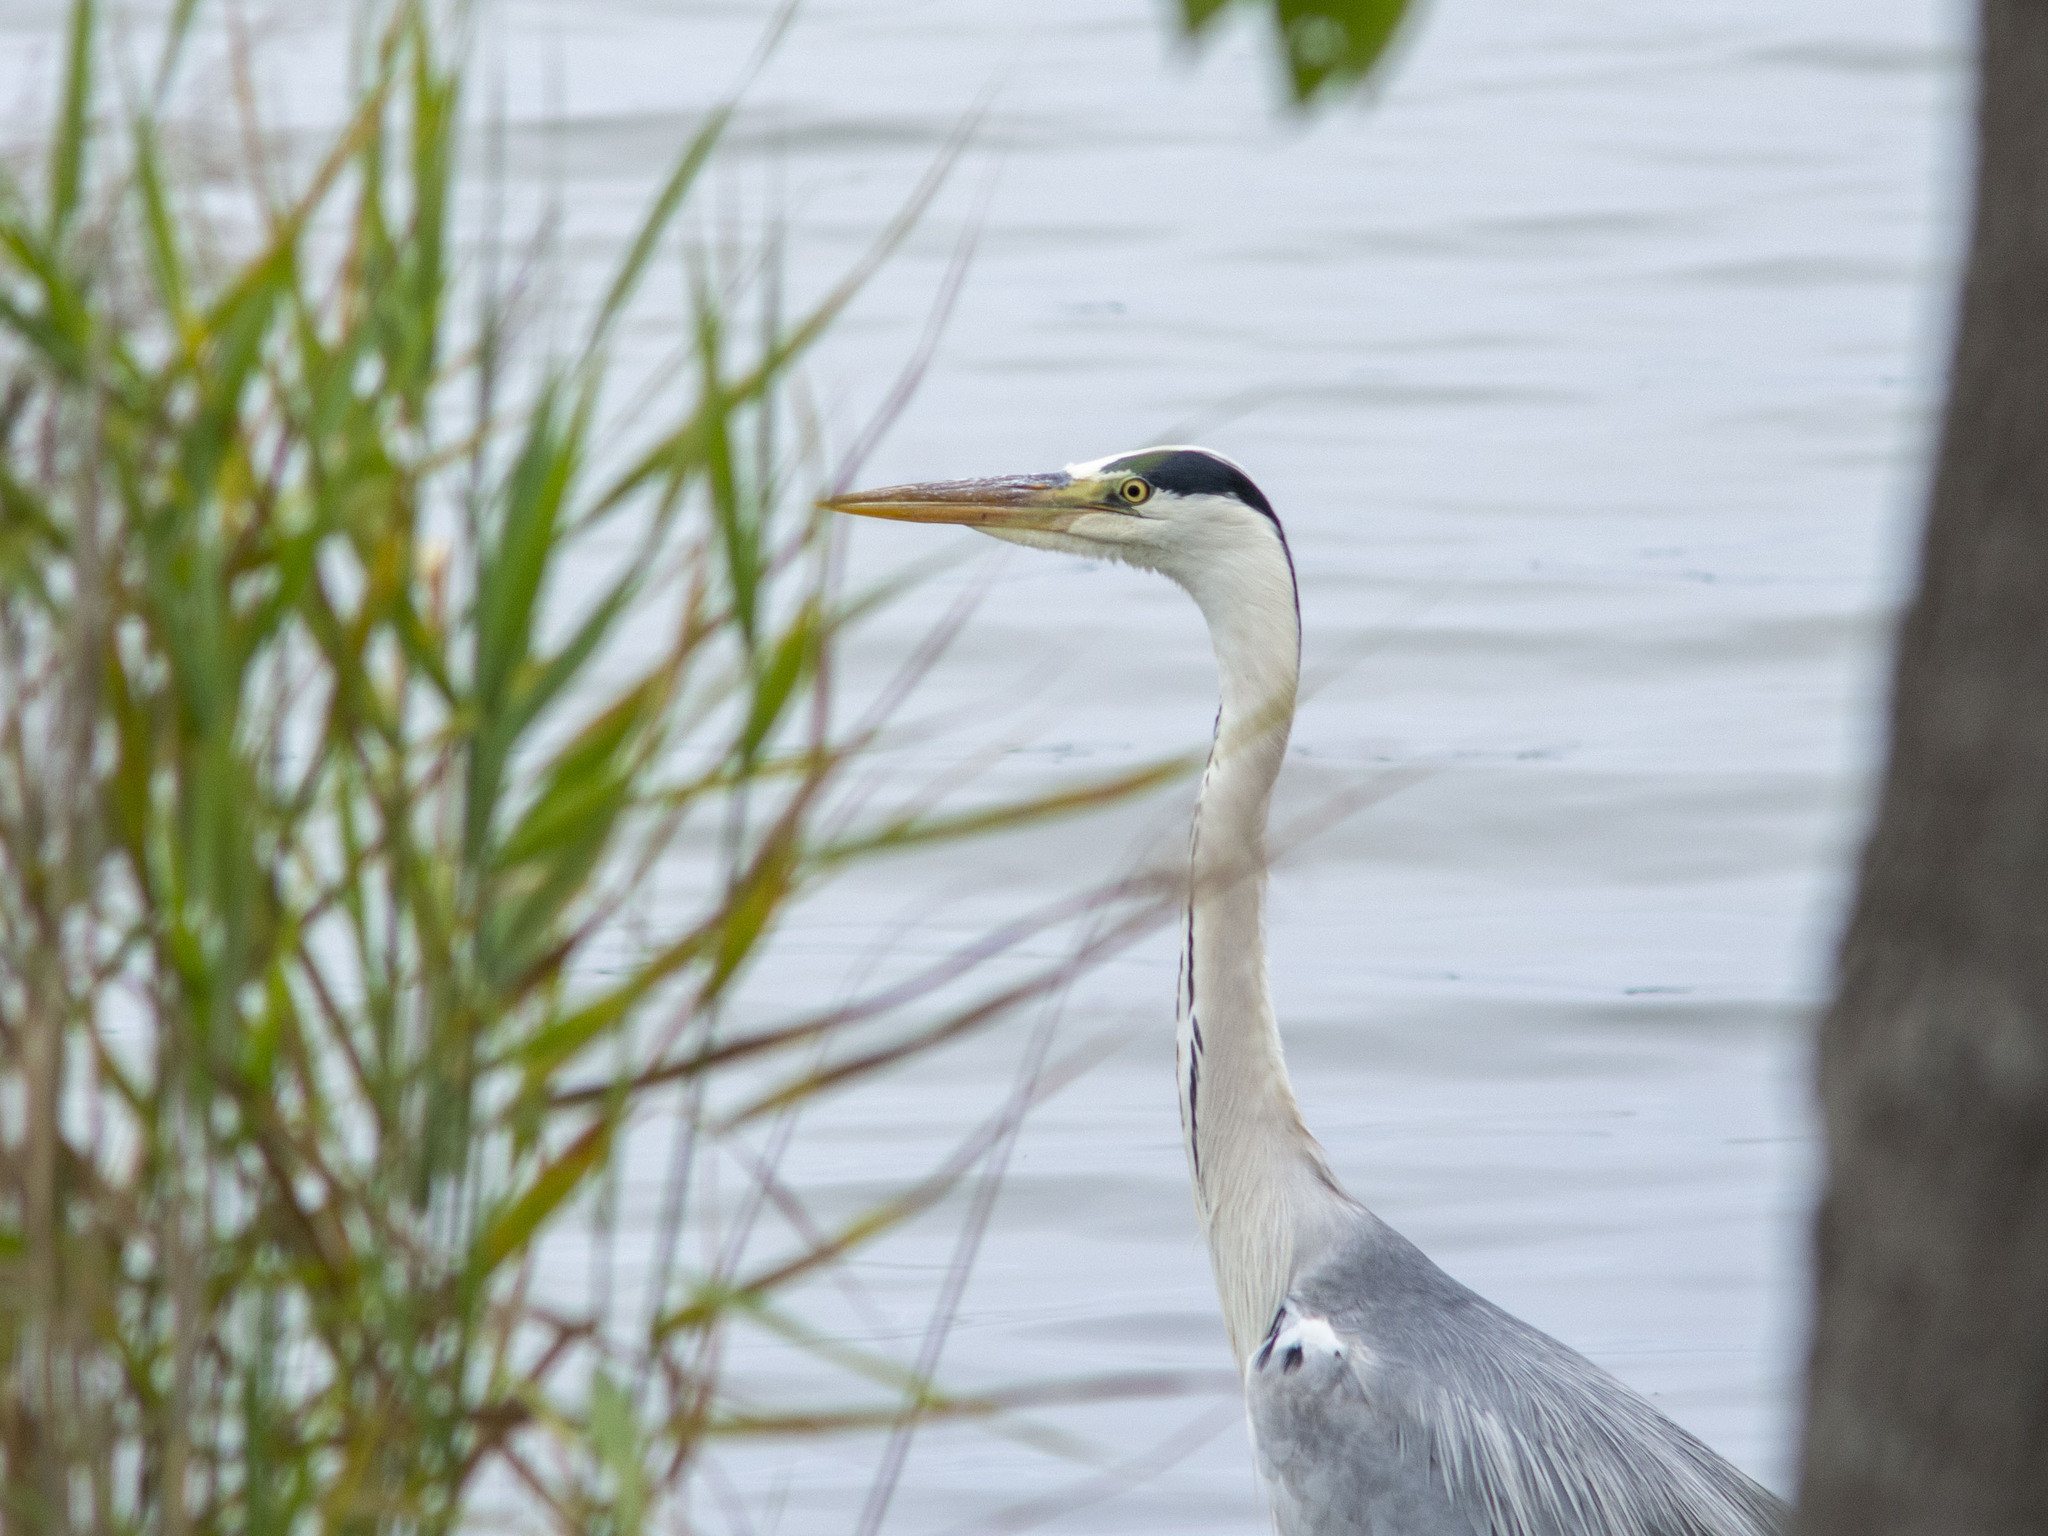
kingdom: Animalia
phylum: Chordata
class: Aves
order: Pelecaniformes
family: Ardeidae
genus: Ardea
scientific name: Ardea cinerea
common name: Grey heron
